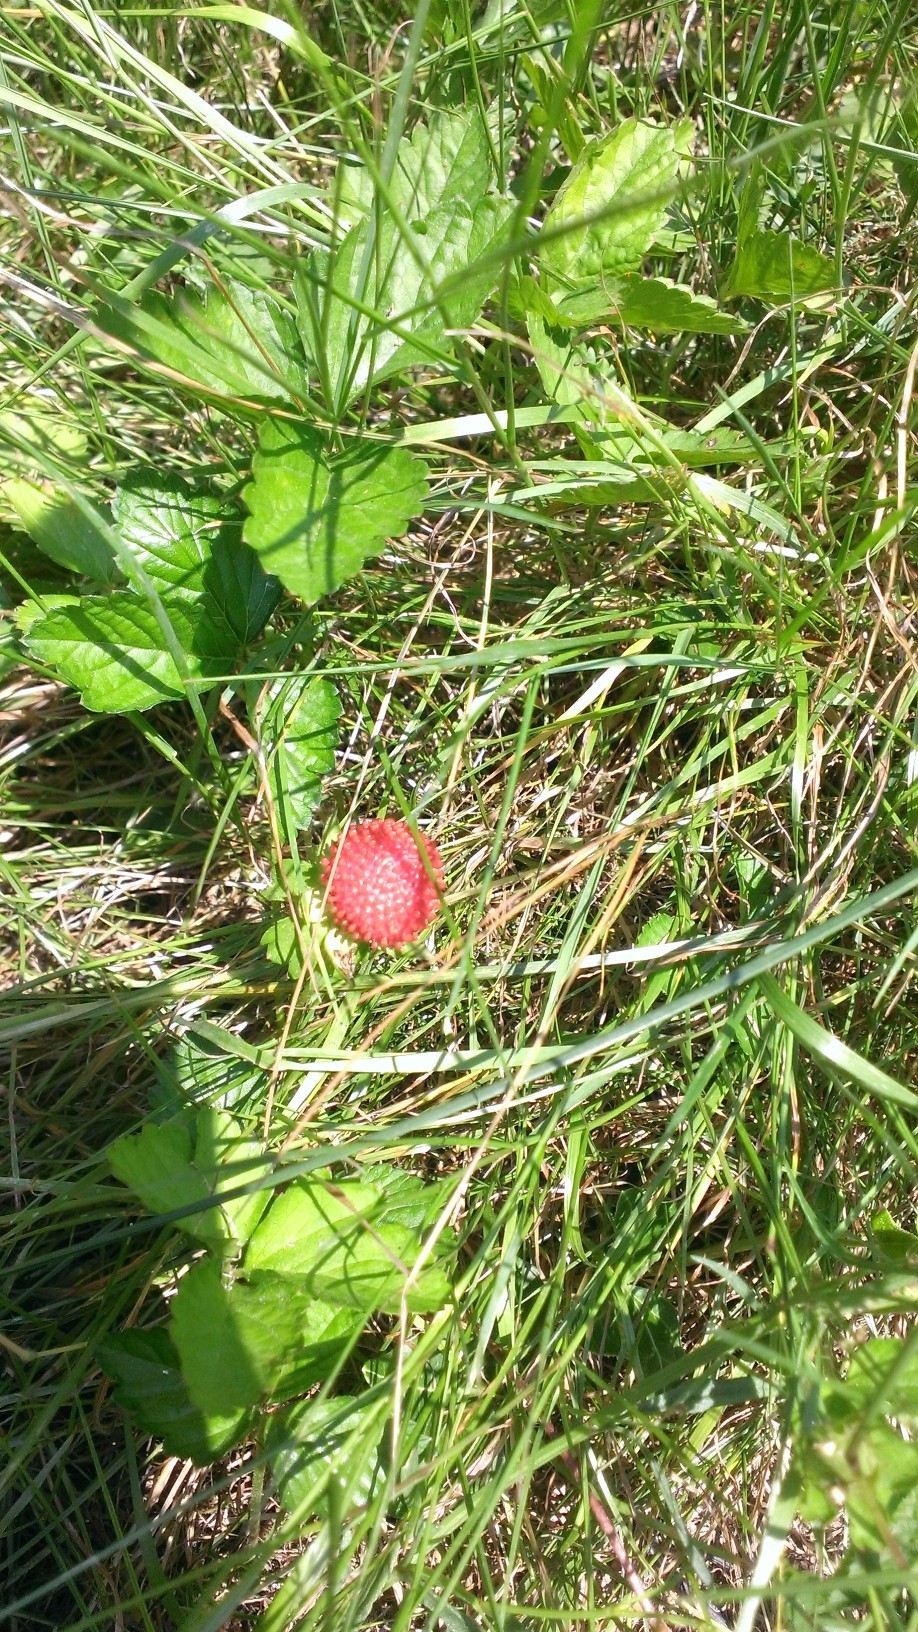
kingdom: Plantae
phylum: Tracheophyta
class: Magnoliopsida
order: Rosales
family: Rosaceae
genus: Potentilla
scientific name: Potentilla indica
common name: Yellow-flowered strawberry
